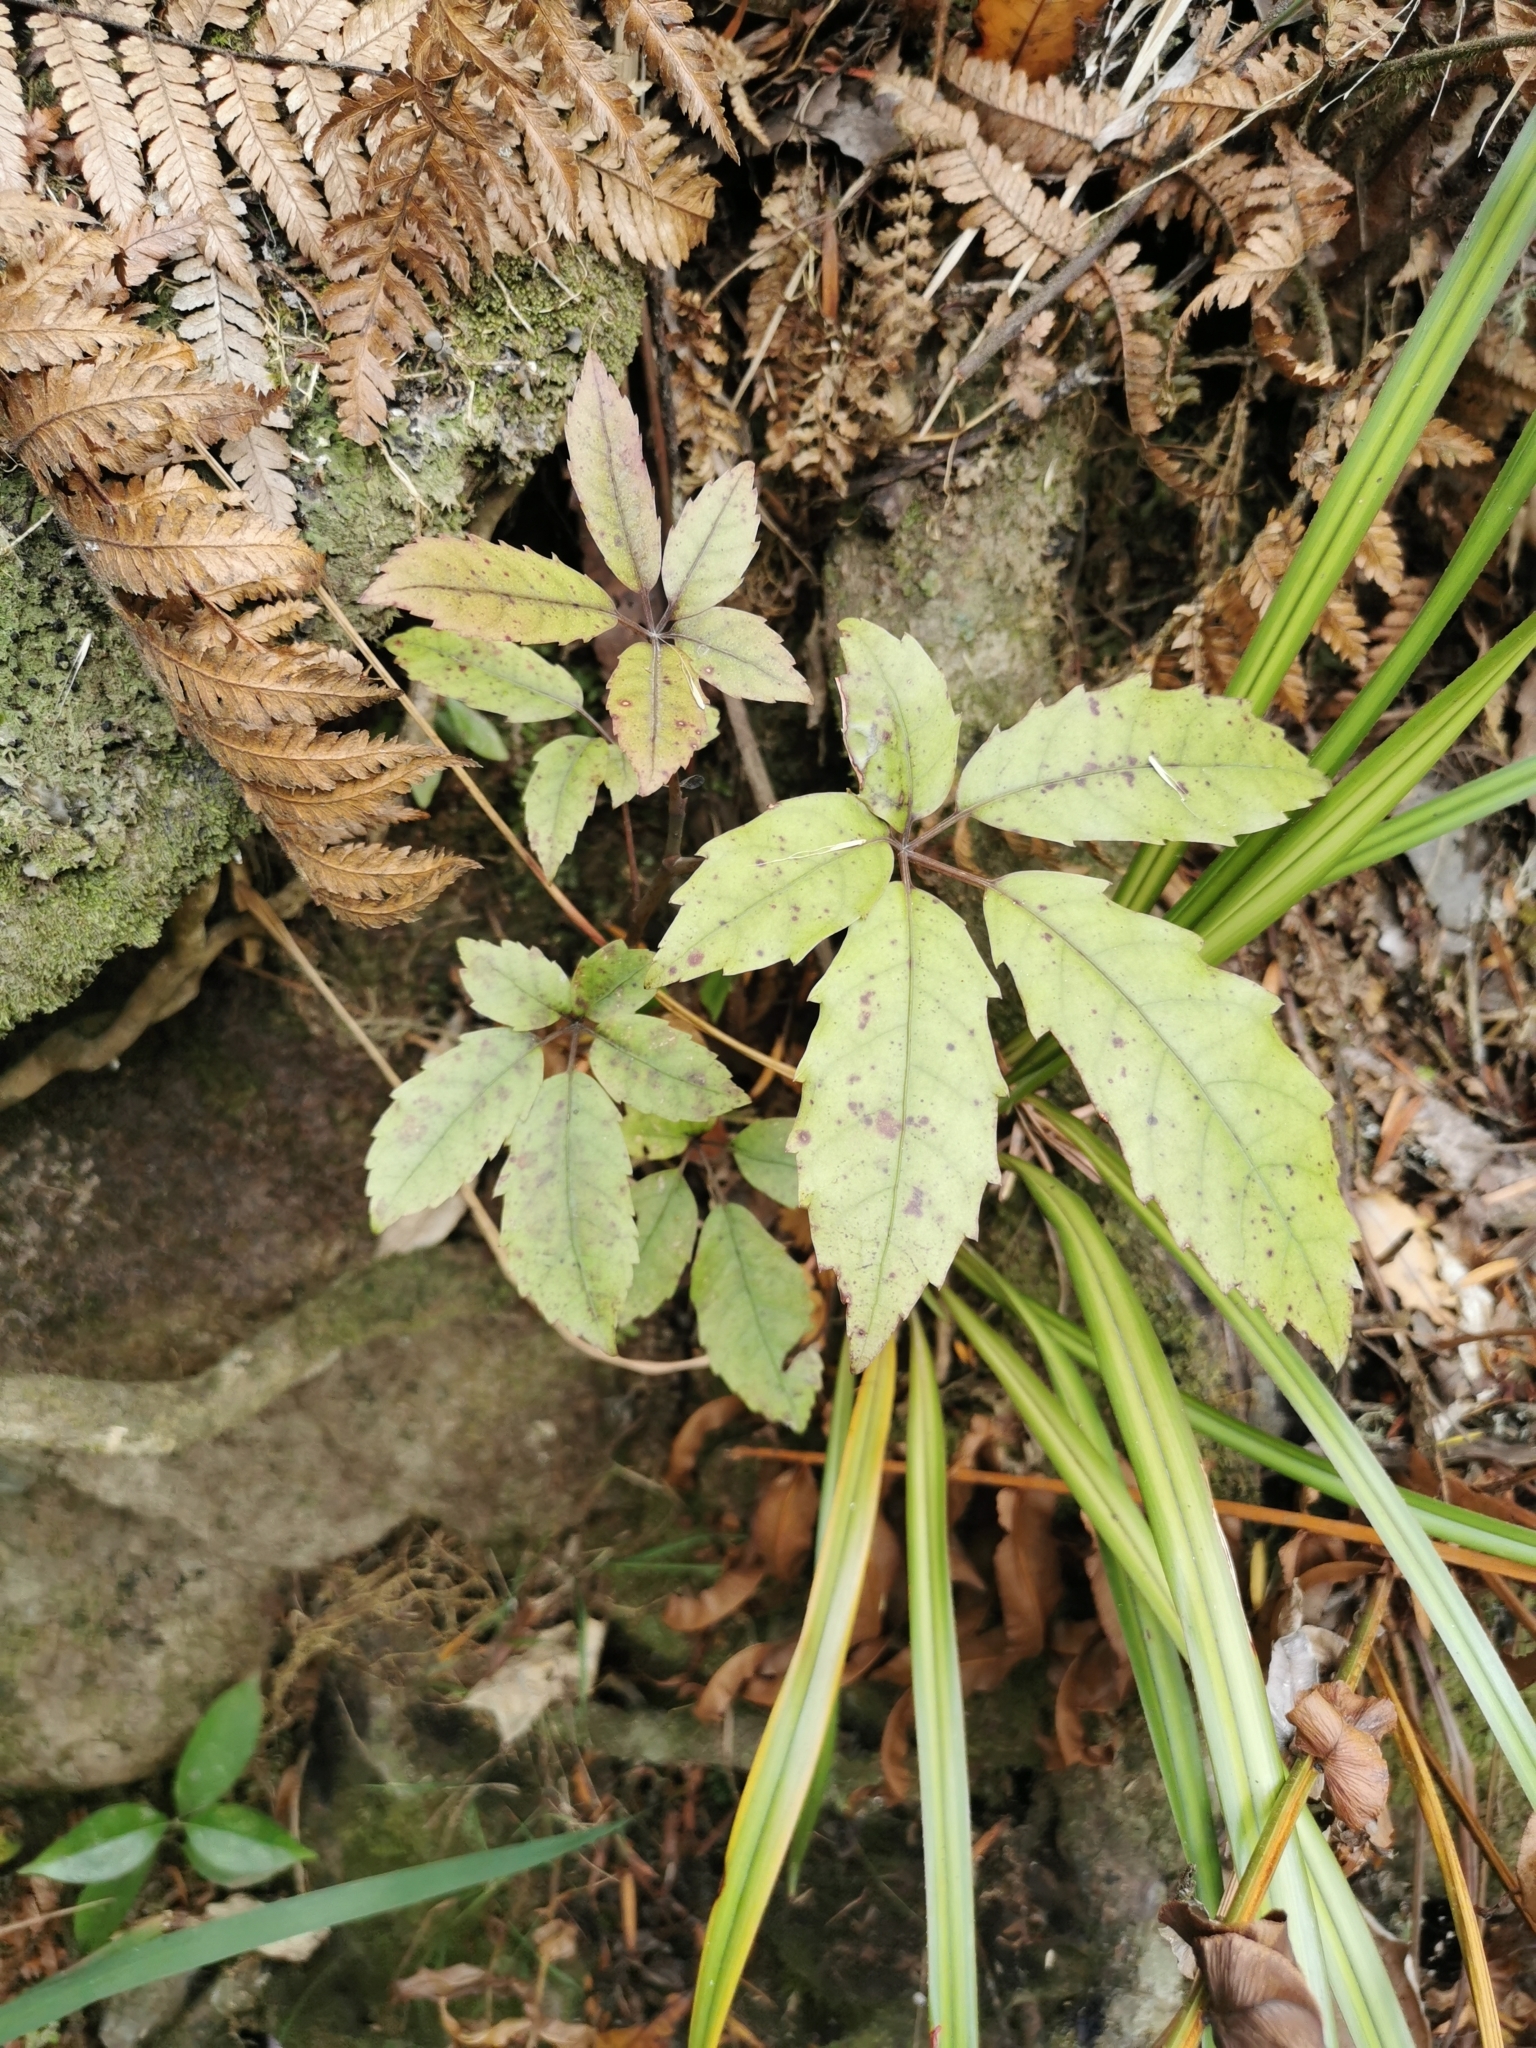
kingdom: Plantae
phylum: Tracheophyta
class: Magnoliopsida
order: Apiales
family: Araliaceae
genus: Neopanax
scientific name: Neopanax arboreus
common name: Five-fingers
